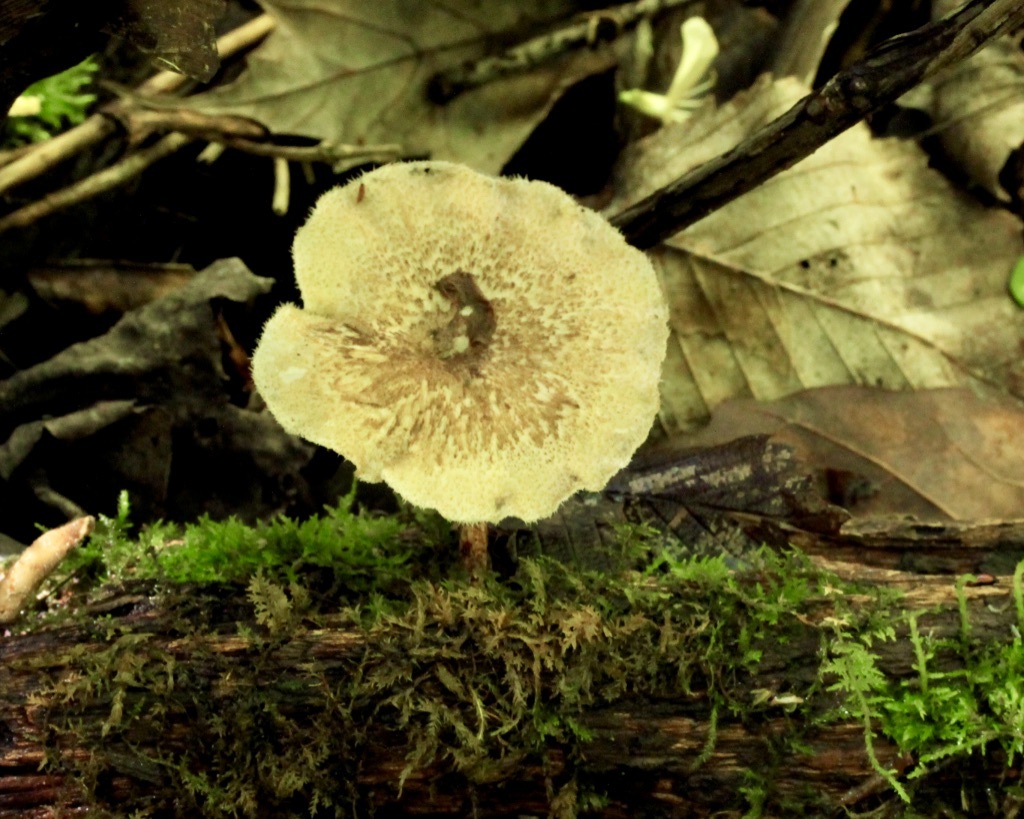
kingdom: Fungi
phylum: Basidiomycota
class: Agaricomycetes
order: Polyporales
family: Polyporaceae
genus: Lentinus
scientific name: Lentinus arcularius
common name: Spring polypore
